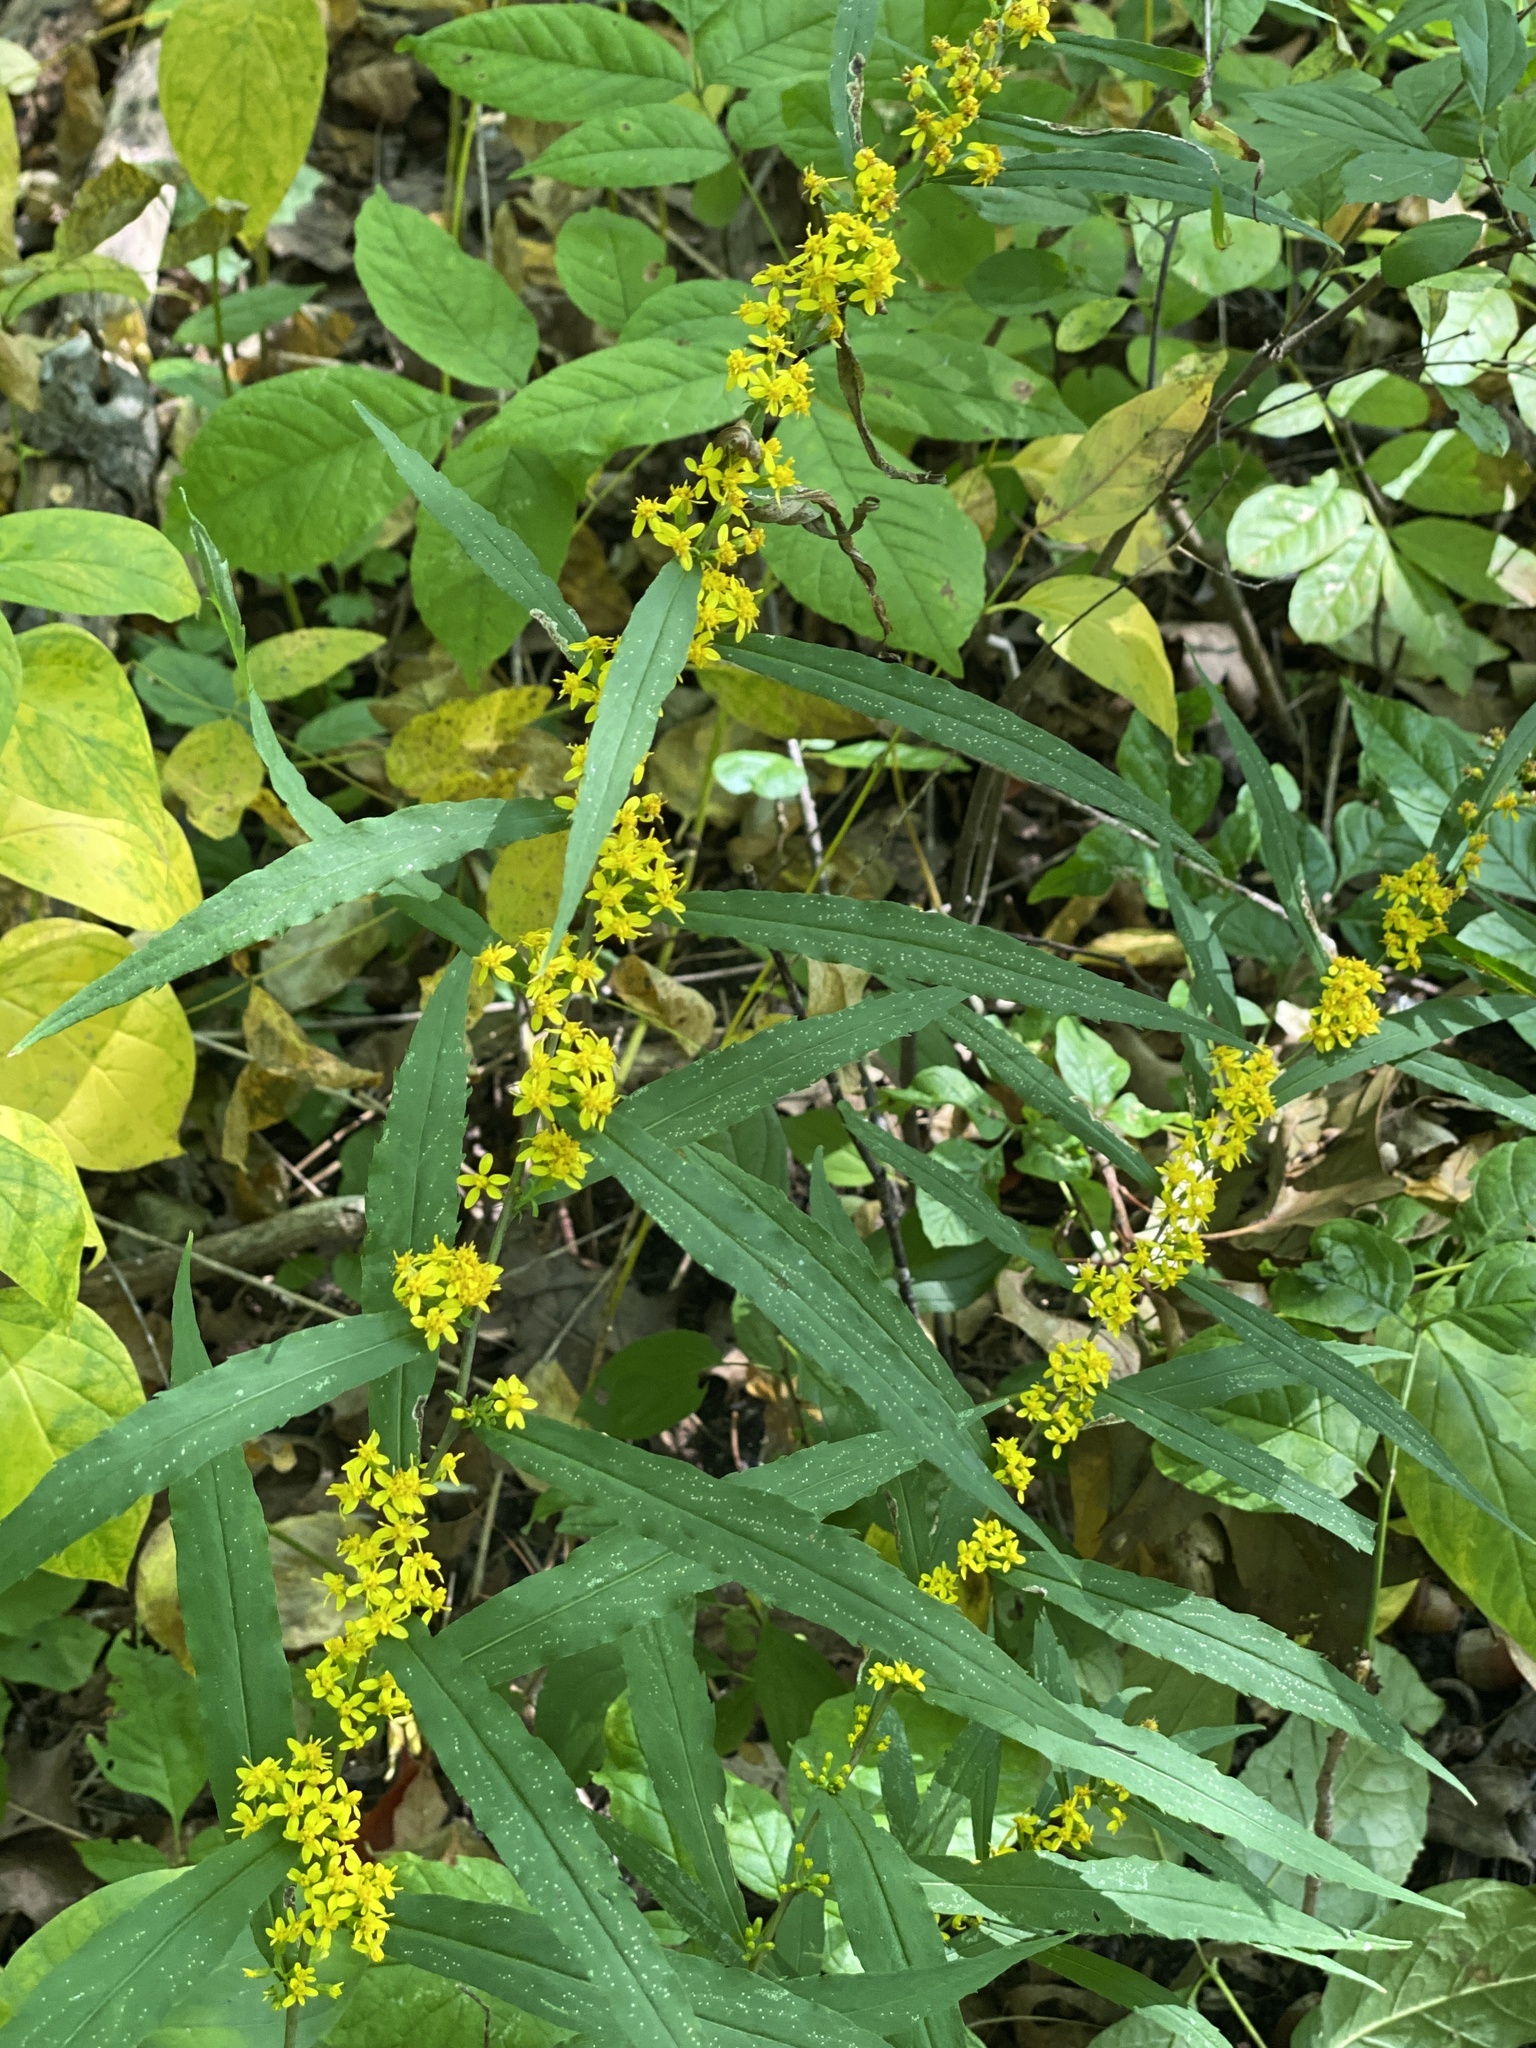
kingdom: Plantae
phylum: Tracheophyta
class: Magnoliopsida
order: Asterales
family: Asteraceae
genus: Solidago
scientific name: Solidago caesia
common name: Woodland goldenrod
